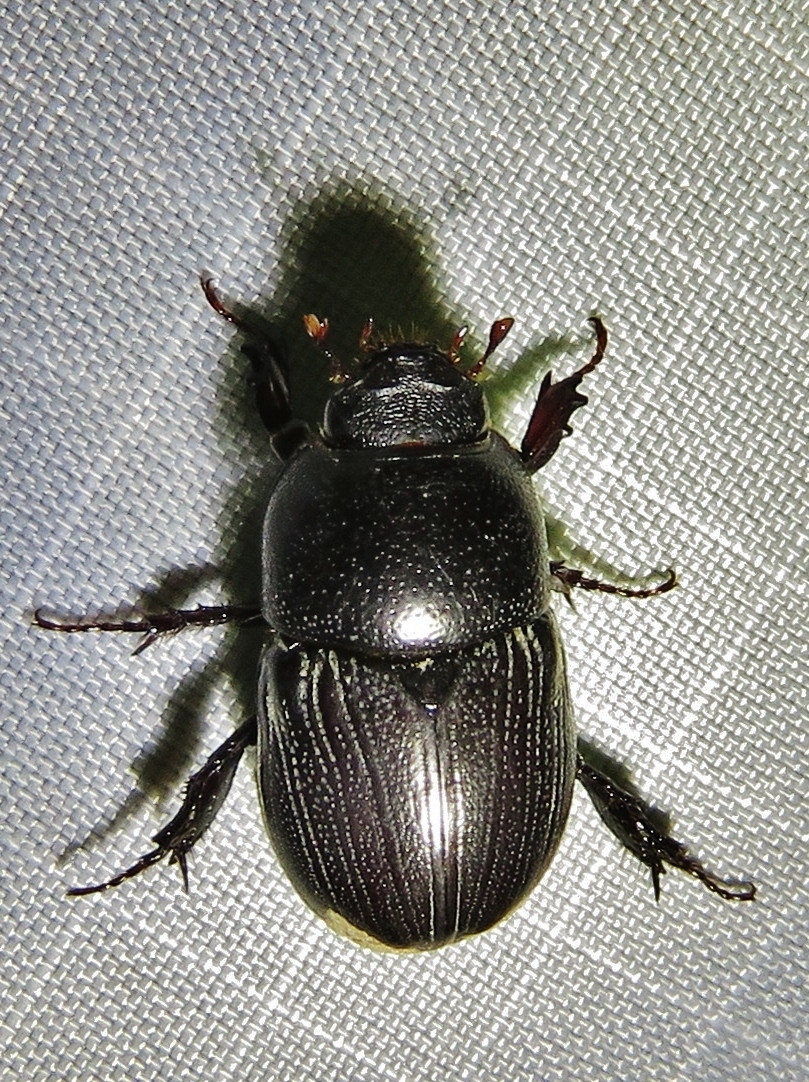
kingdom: Animalia
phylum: Arthropoda
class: Insecta
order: Coleoptera
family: Scarabaeidae
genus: Euetheola
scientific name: Euetheola humilis
